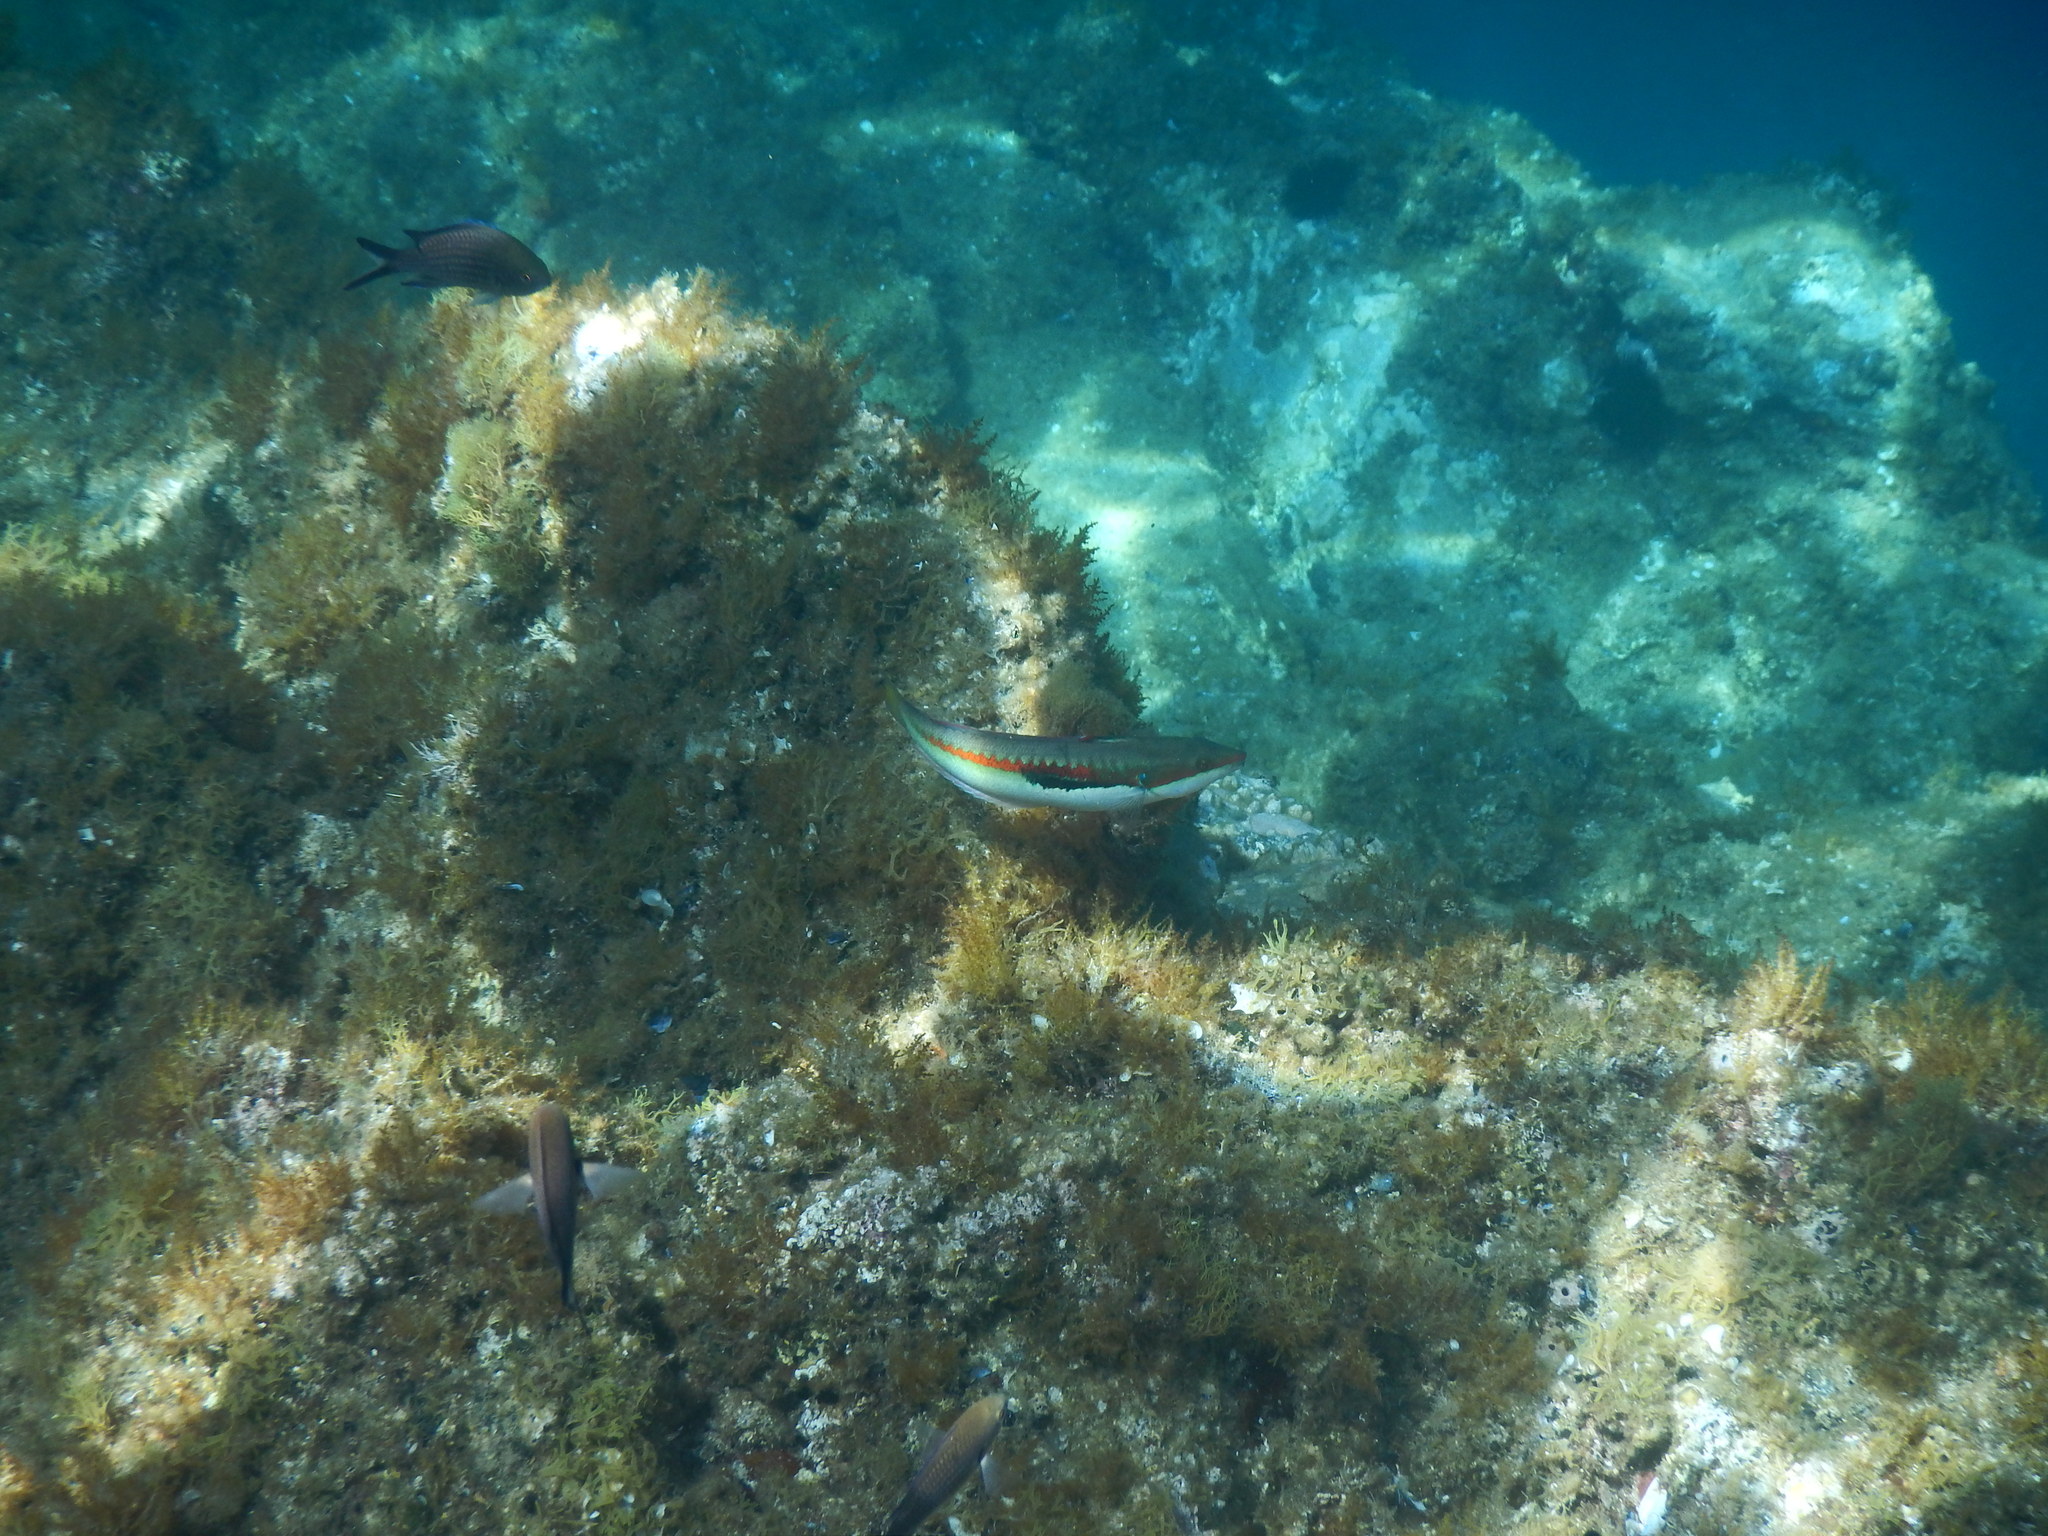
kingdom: Animalia
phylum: Chordata
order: Perciformes
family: Labridae
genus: Coris
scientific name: Coris julis
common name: Rainbow wrasse
